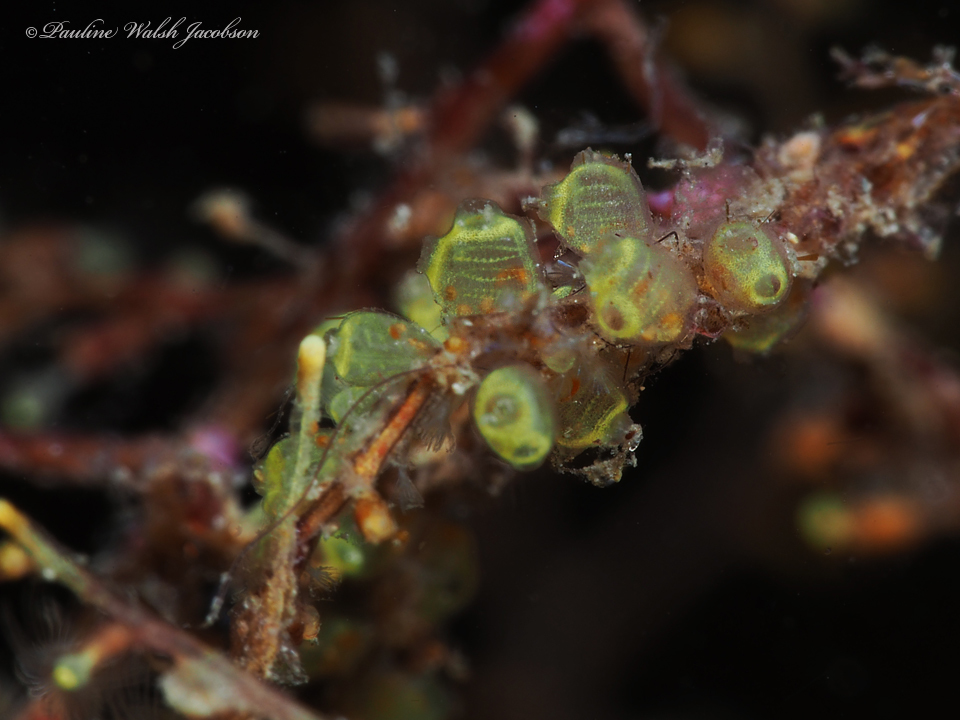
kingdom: Animalia
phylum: Chordata
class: Ascidiacea
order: Phlebobranchia
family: Perophoridae
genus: Perophora
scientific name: Perophora viridis
